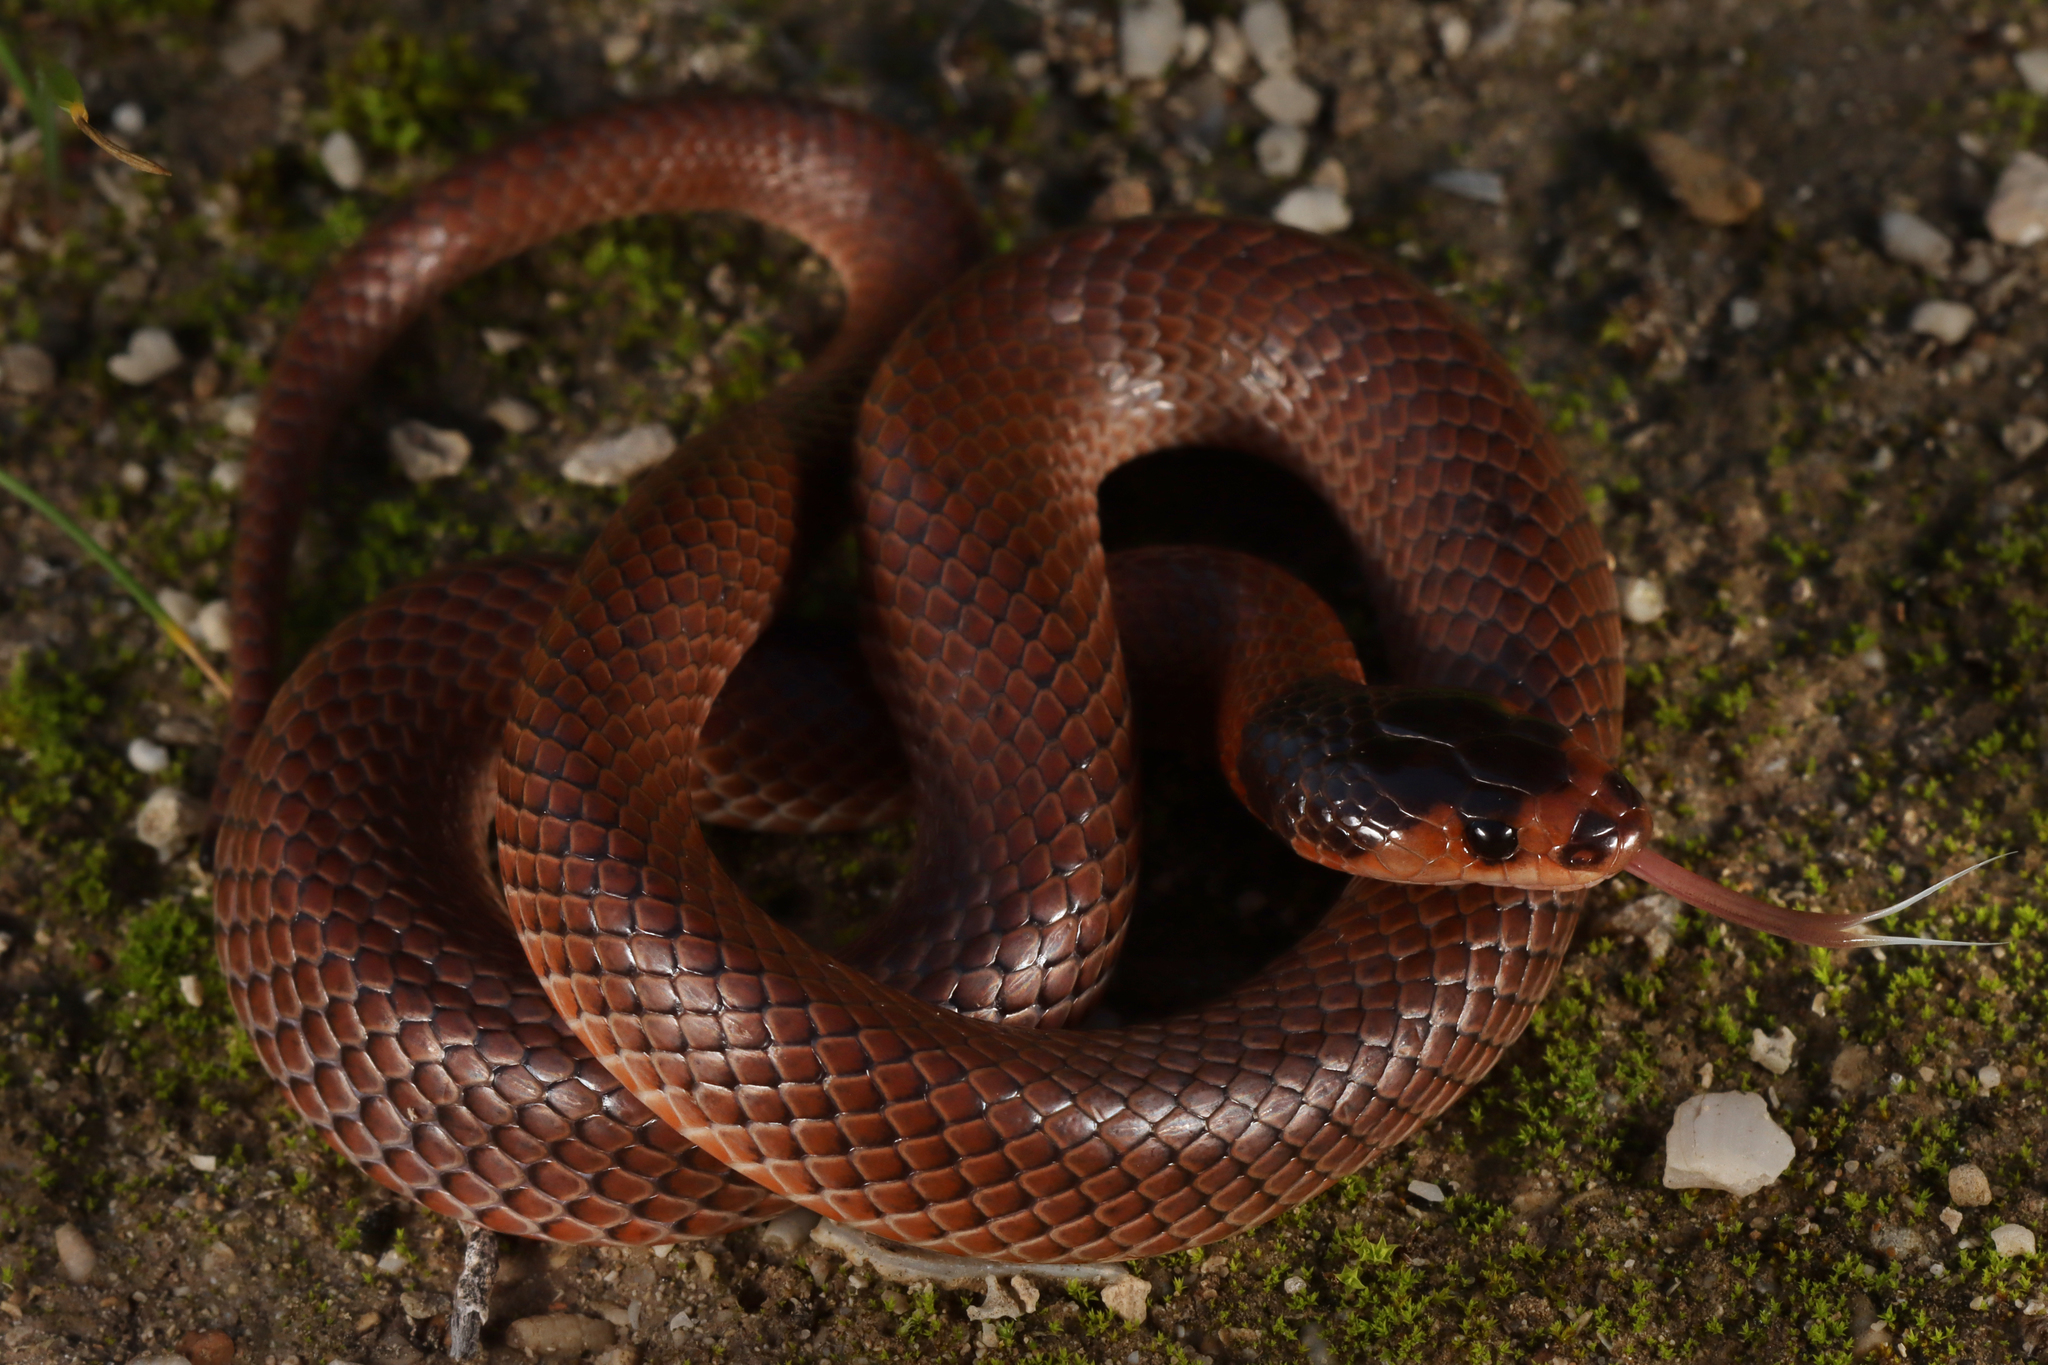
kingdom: Animalia
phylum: Chordata
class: Squamata
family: Elapidae
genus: Suta
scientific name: Suta spectabilis
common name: Bush’s hooded snake
